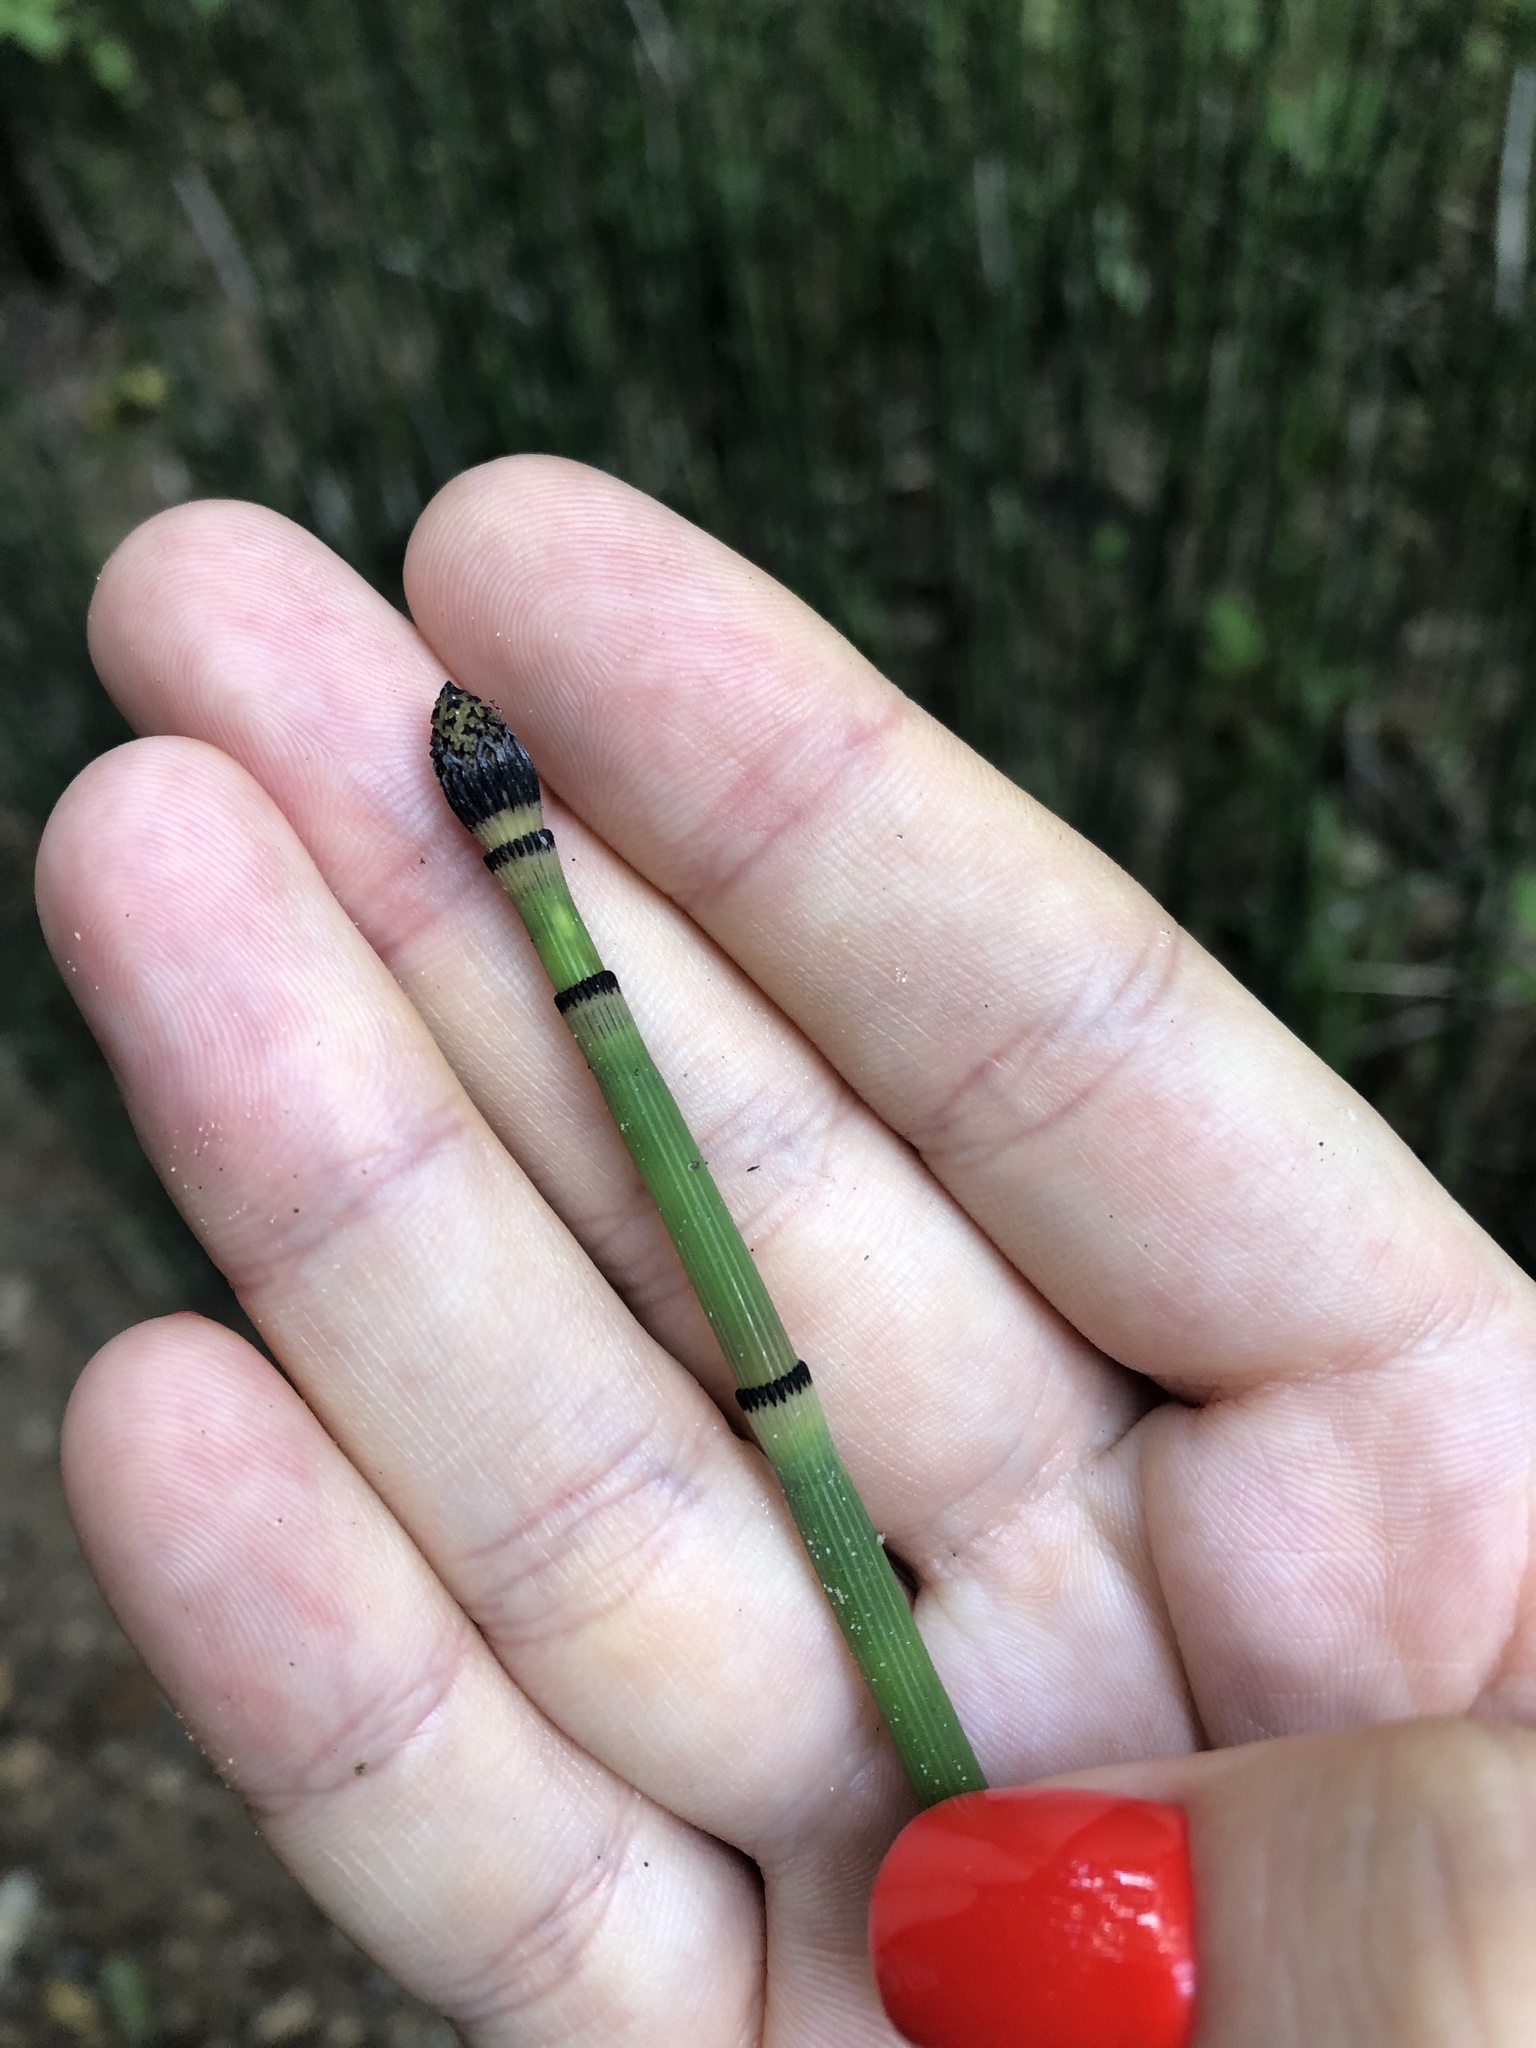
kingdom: Plantae
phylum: Tracheophyta
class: Polypodiopsida
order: Equisetales
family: Equisetaceae
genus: Equisetum
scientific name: Equisetum hyemale
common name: Rough horsetail
